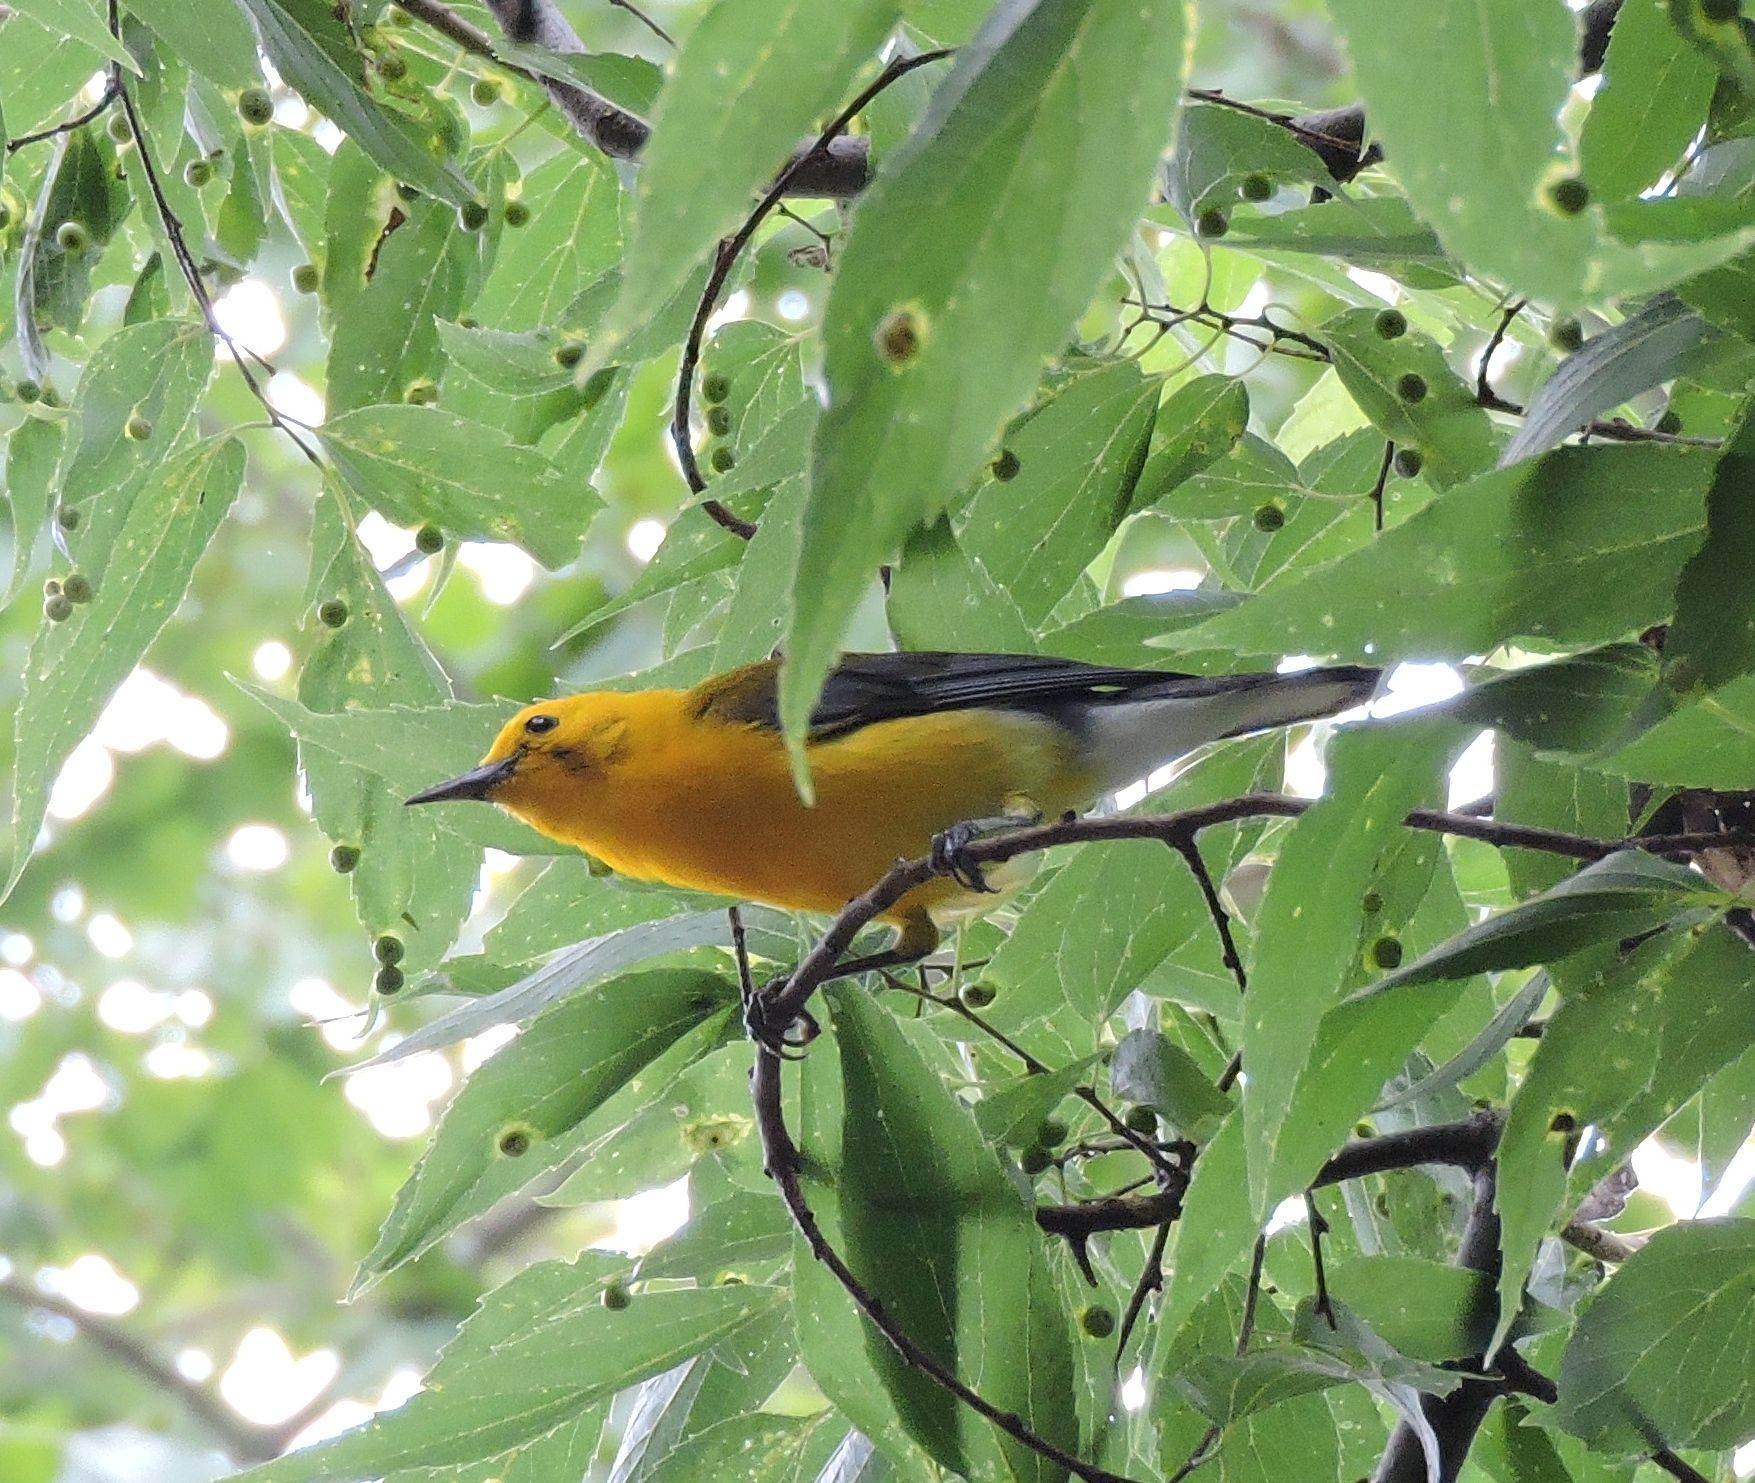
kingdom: Animalia
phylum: Chordata
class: Aves
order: Passeriformes
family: Parulidae
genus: Protonotaria
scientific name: Protonotaria citrea
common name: Prothonotary warbler
